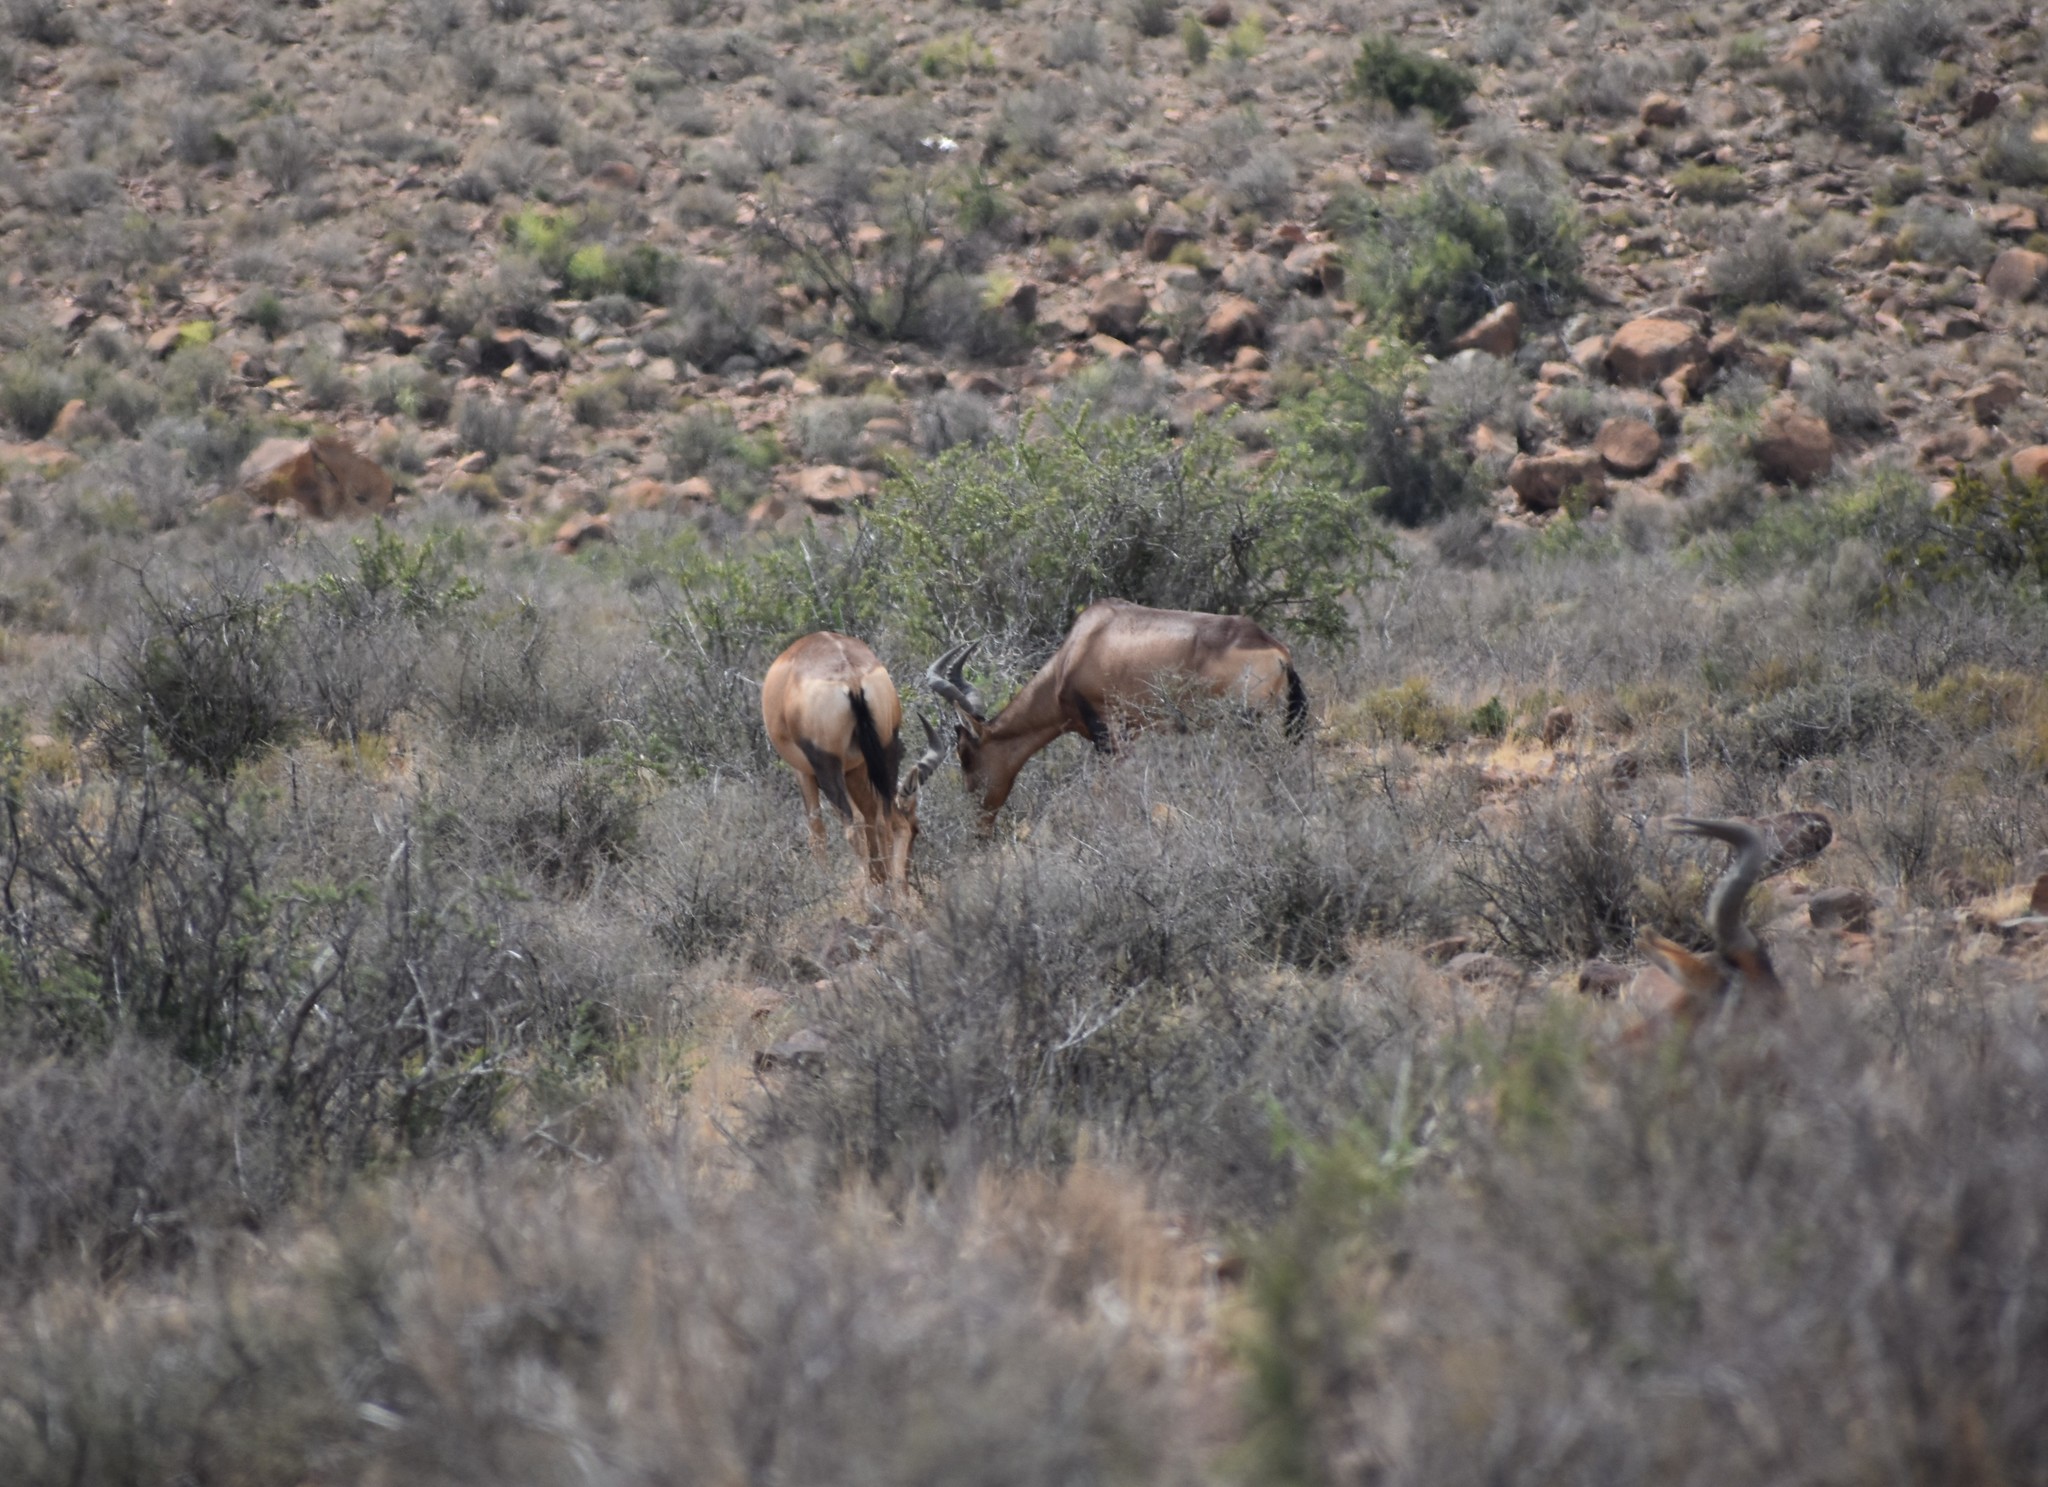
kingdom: Animalia
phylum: Chordata
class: Mammalia
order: Artiodactyla
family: Bovidae
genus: Alcelaphus
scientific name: Alcelaphus caama
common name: Red hartebeest
